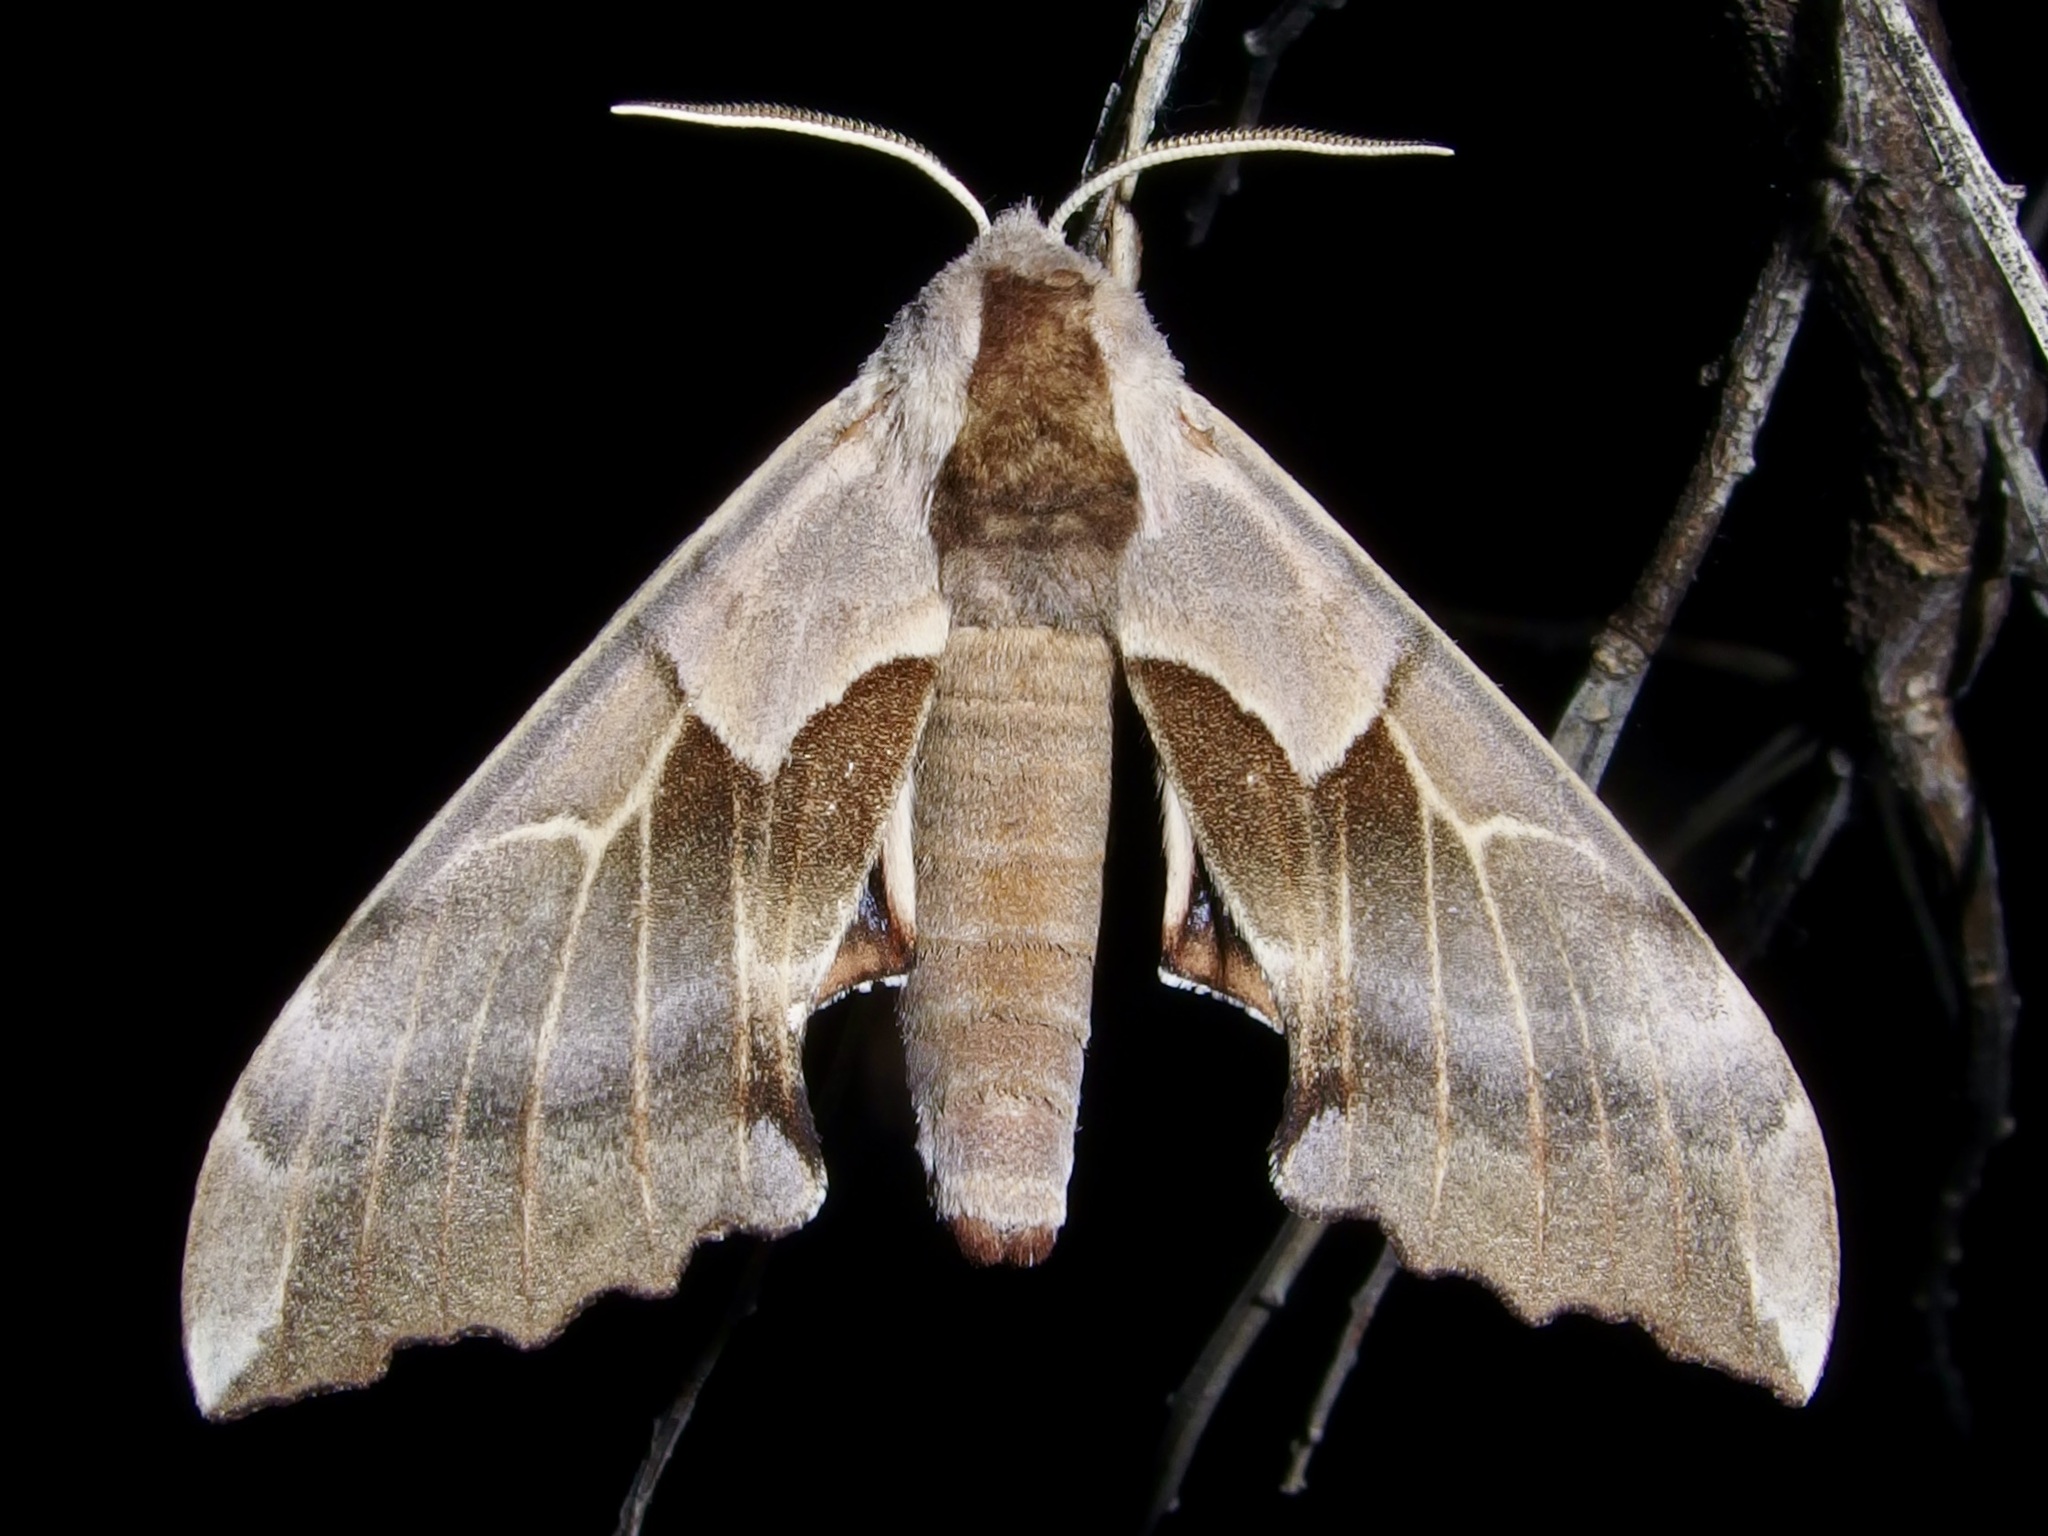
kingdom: Animalia
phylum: Arthropoda
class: Insecta
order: Lepidoptera
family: Sphingidae
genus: Smerinthus
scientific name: Smerinthus cerisyi
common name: Cerisy's sphinx moth
